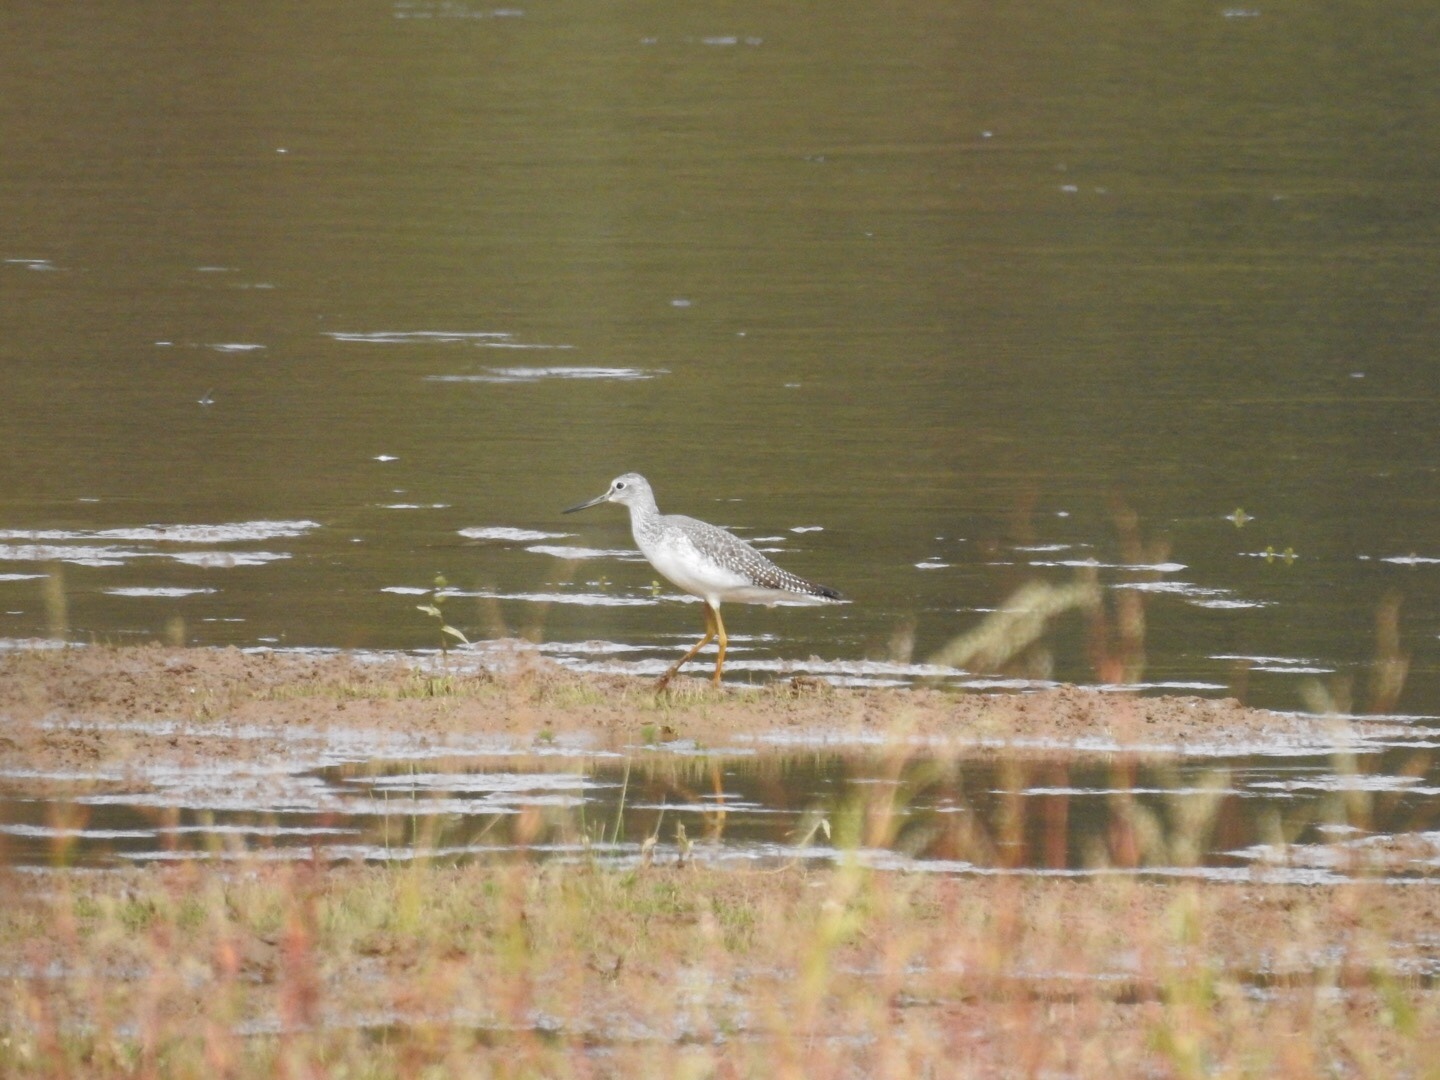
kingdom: Animalia
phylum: Chordata
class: Aves
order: Charadriiformes
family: Scolopacidae
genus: Tringa
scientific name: Tringa melanoleuca
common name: Greater yellowlegs
